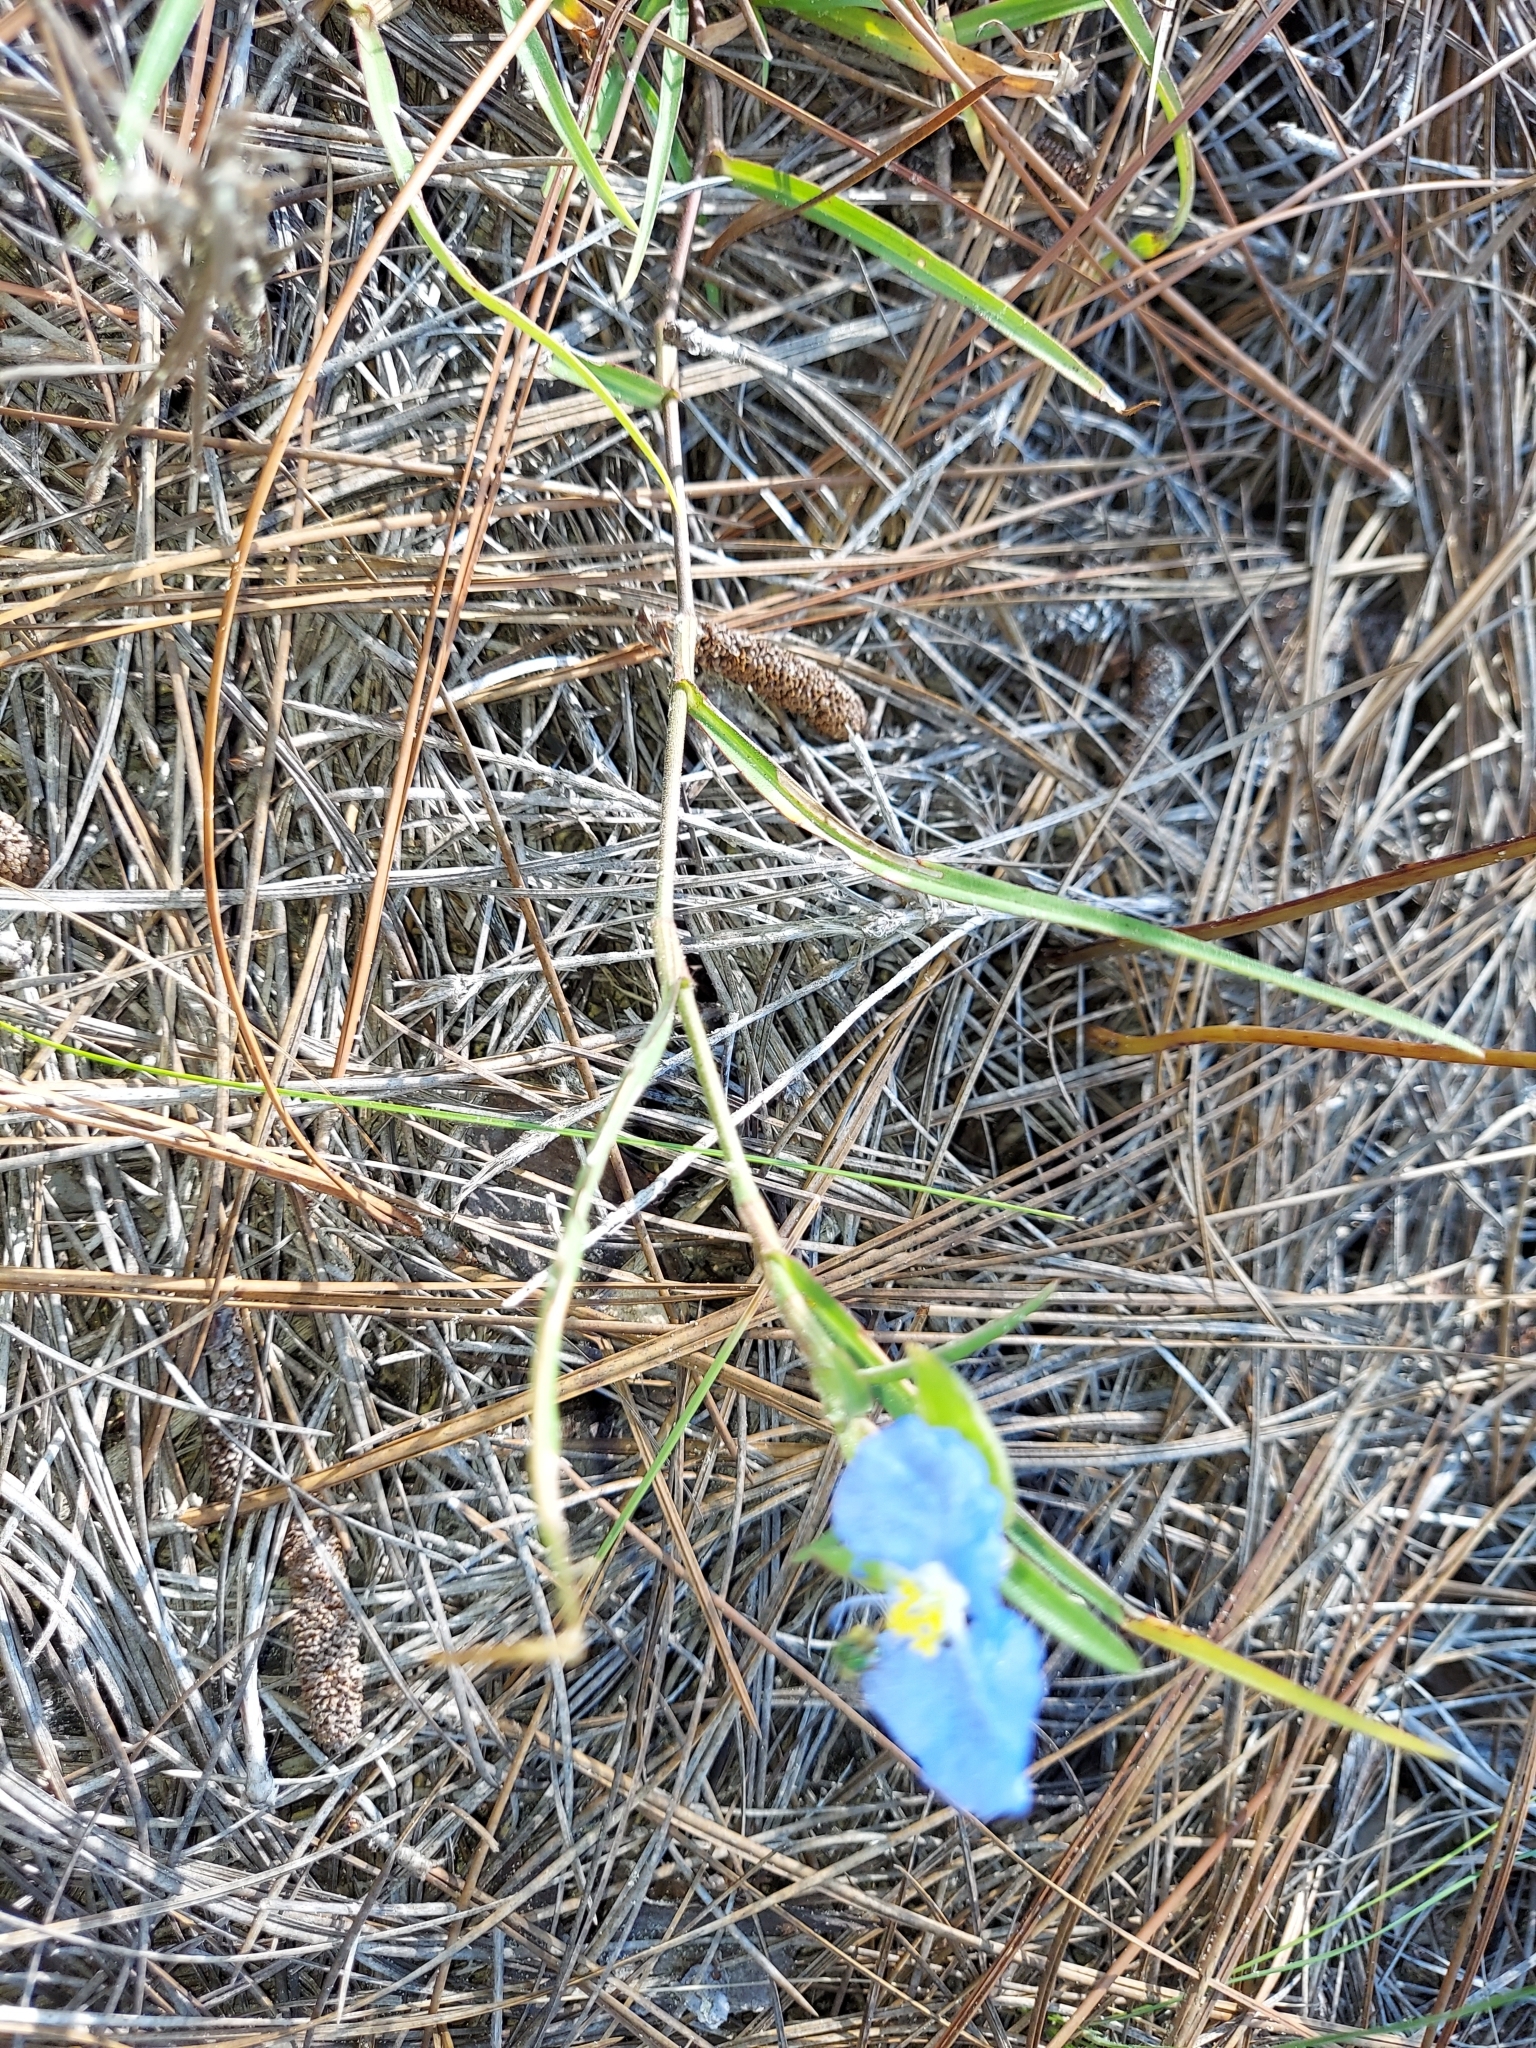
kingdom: Plantae
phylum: Tracheophyta
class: Liliopsida
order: Commelinales
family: Commelinaceae
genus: Commelina
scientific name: Commelina erecta
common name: Blousel blommetjie
